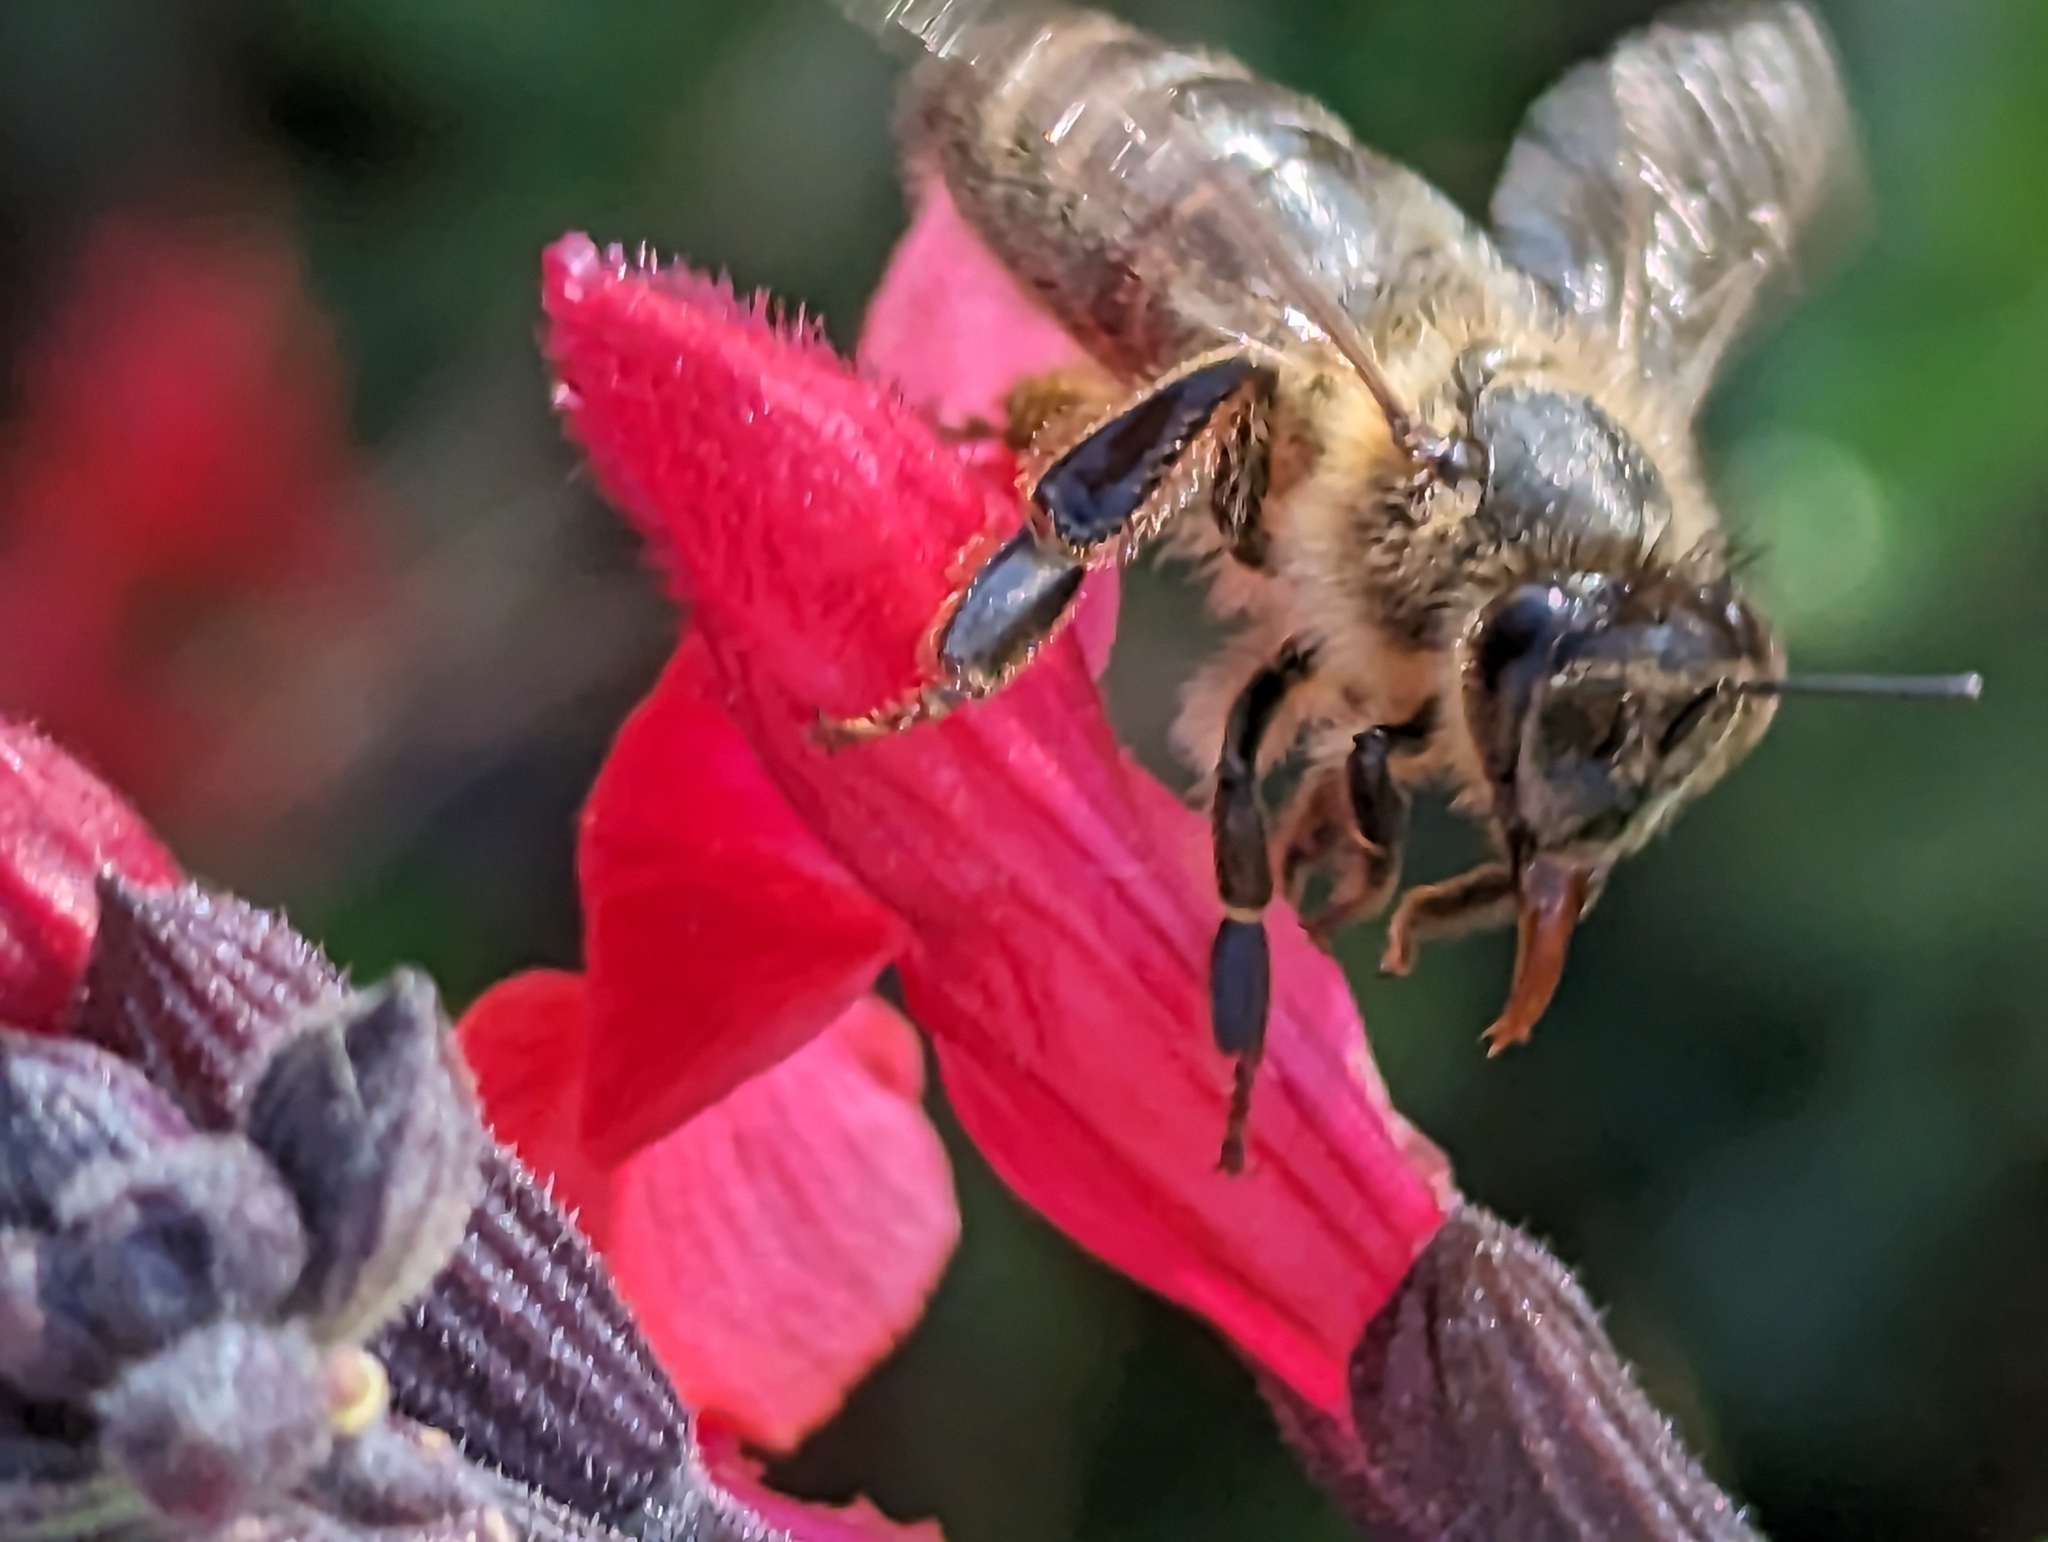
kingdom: Animalia
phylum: Arthropoda
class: Insecta
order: Hymenoptera
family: Apidae
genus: Apis
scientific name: Apis mellifera
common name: Honey bee
